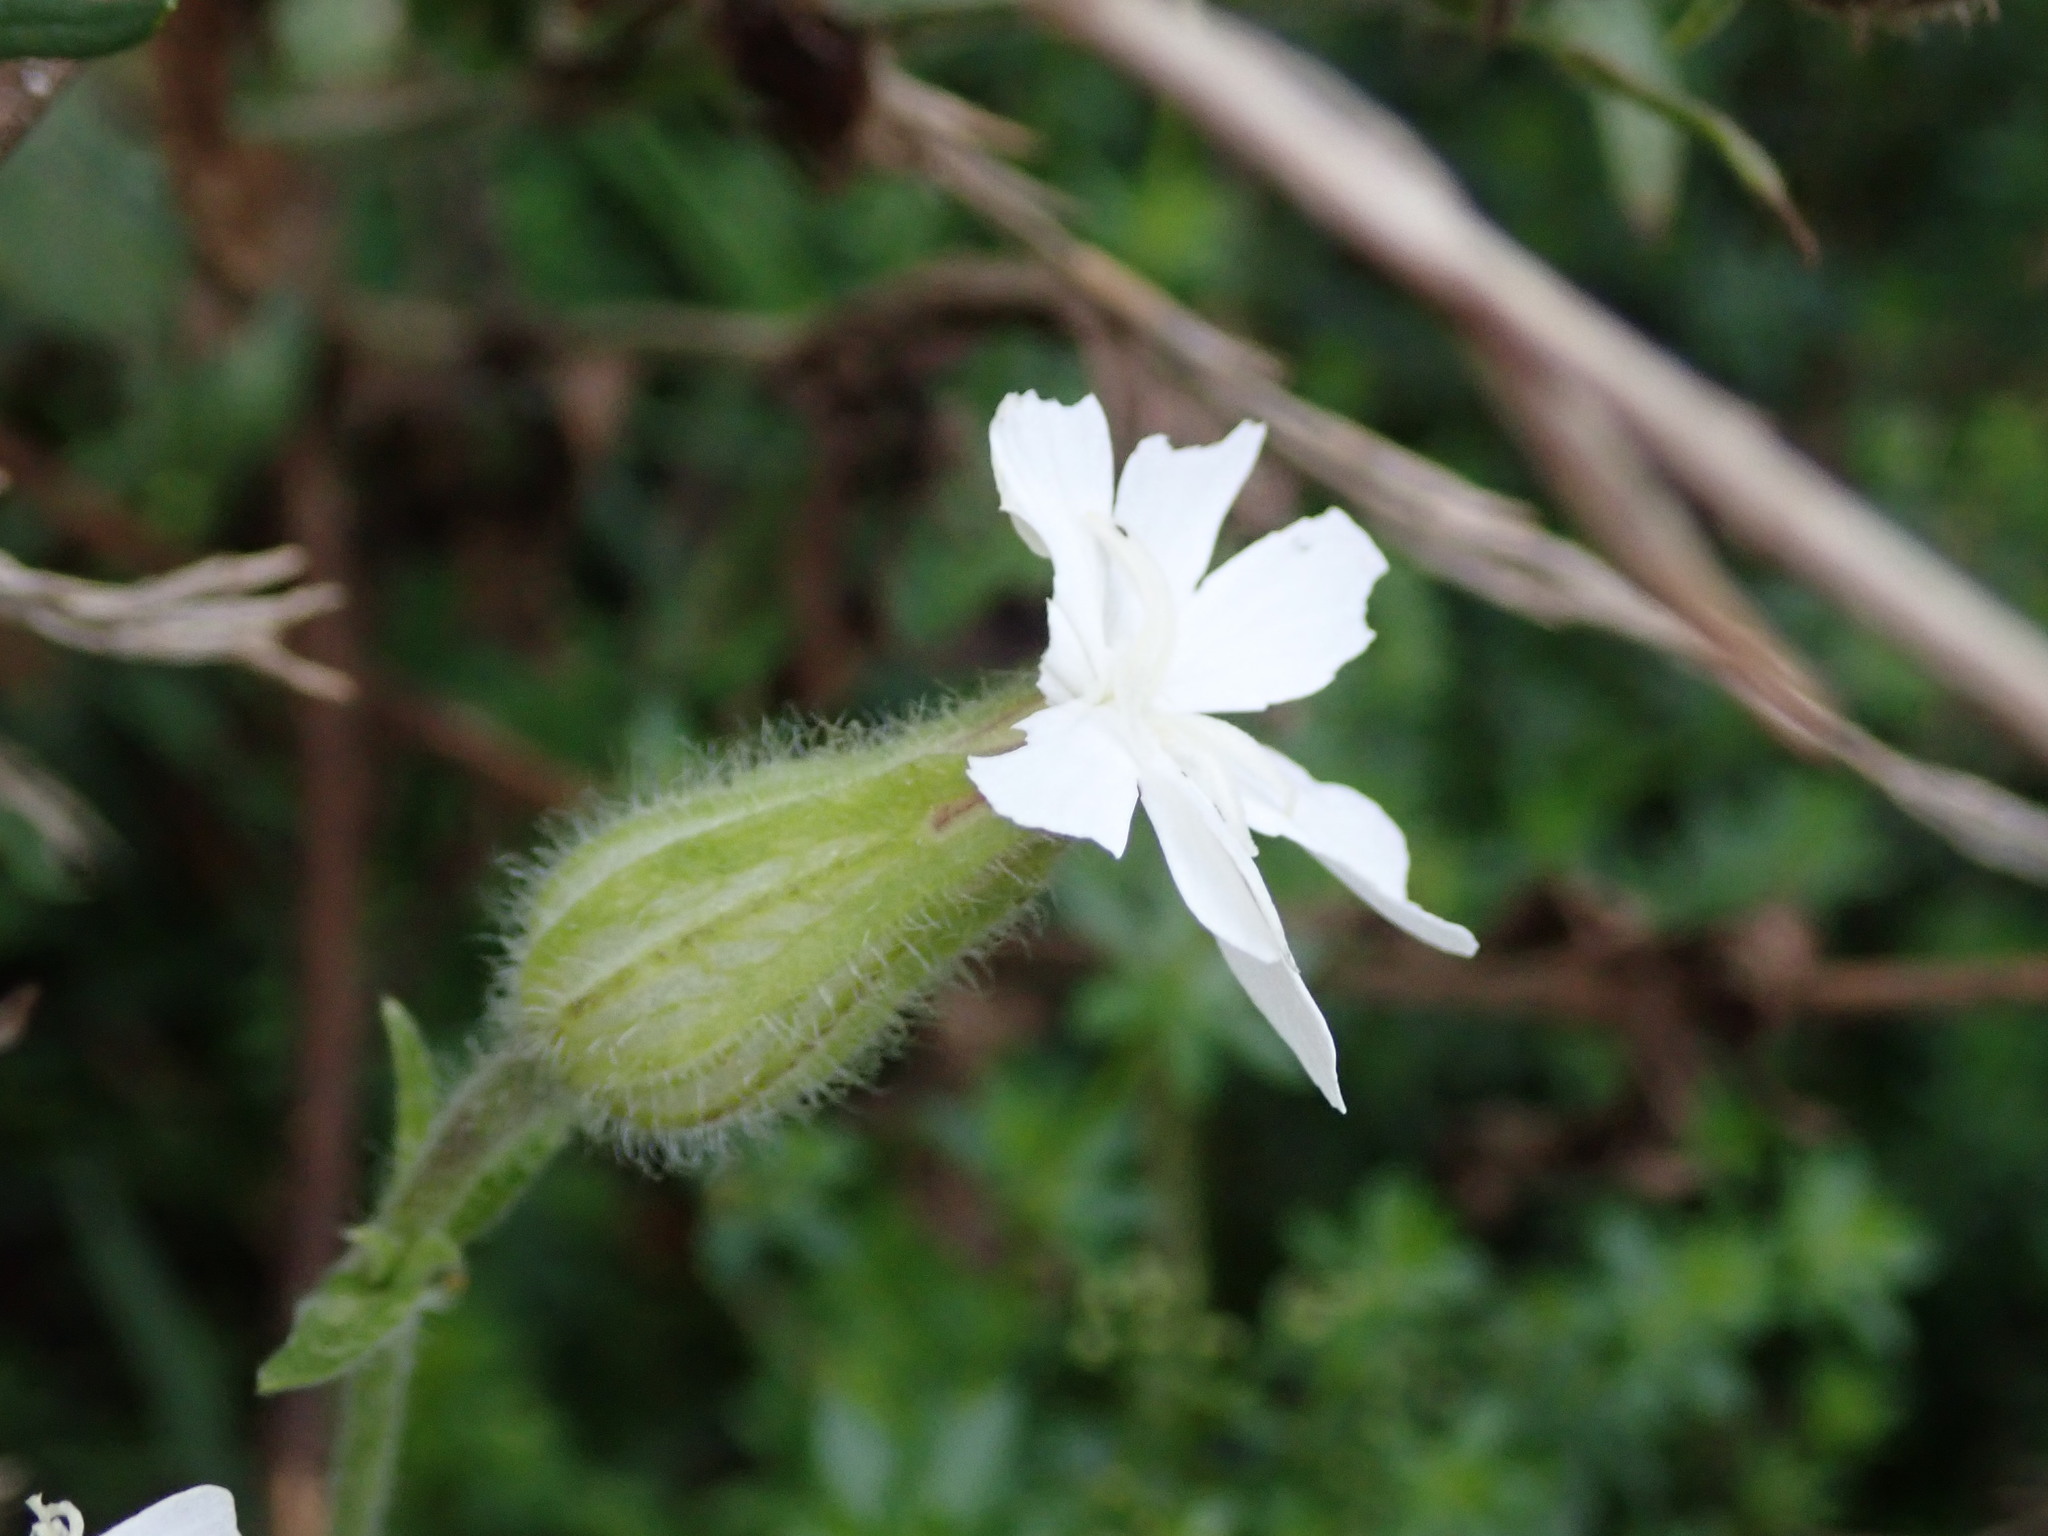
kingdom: Plantae
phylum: Tracheophyta
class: Magnoliopsida
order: Caryophyllales
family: Caryophyllaceae
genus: Silene
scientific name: Silene latifolia
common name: White campion
